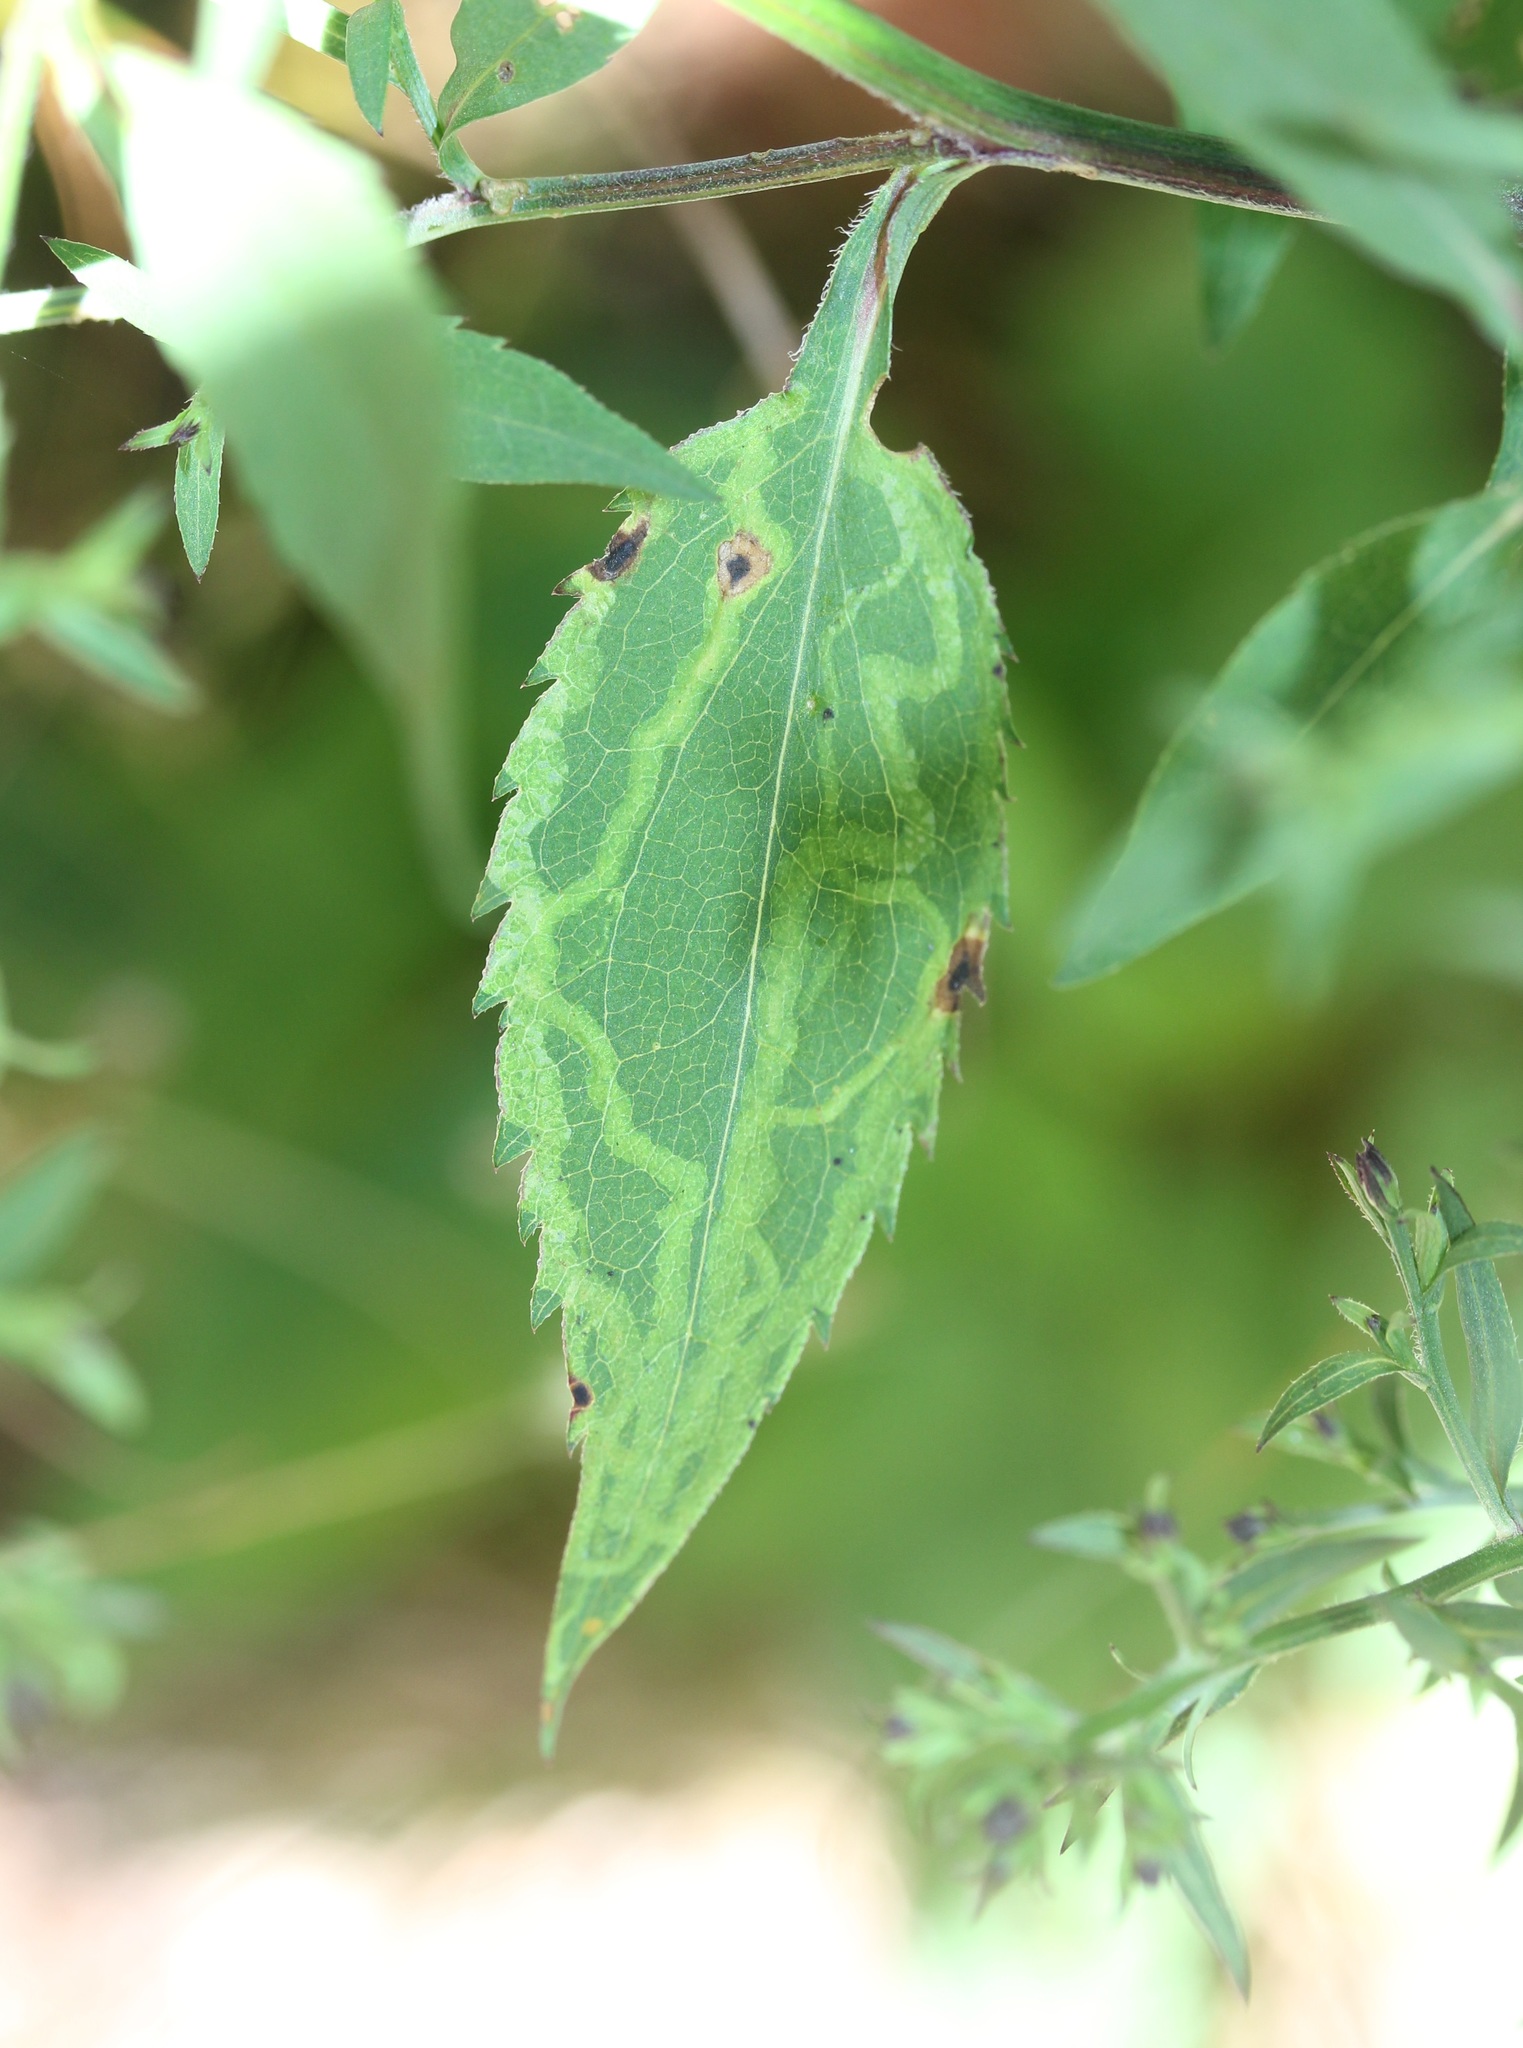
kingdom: Animalia
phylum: Arthropoda
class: Insecta
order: Diptera
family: Agromyzidae
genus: Ophiomyia
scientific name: Ophiomyia parda
